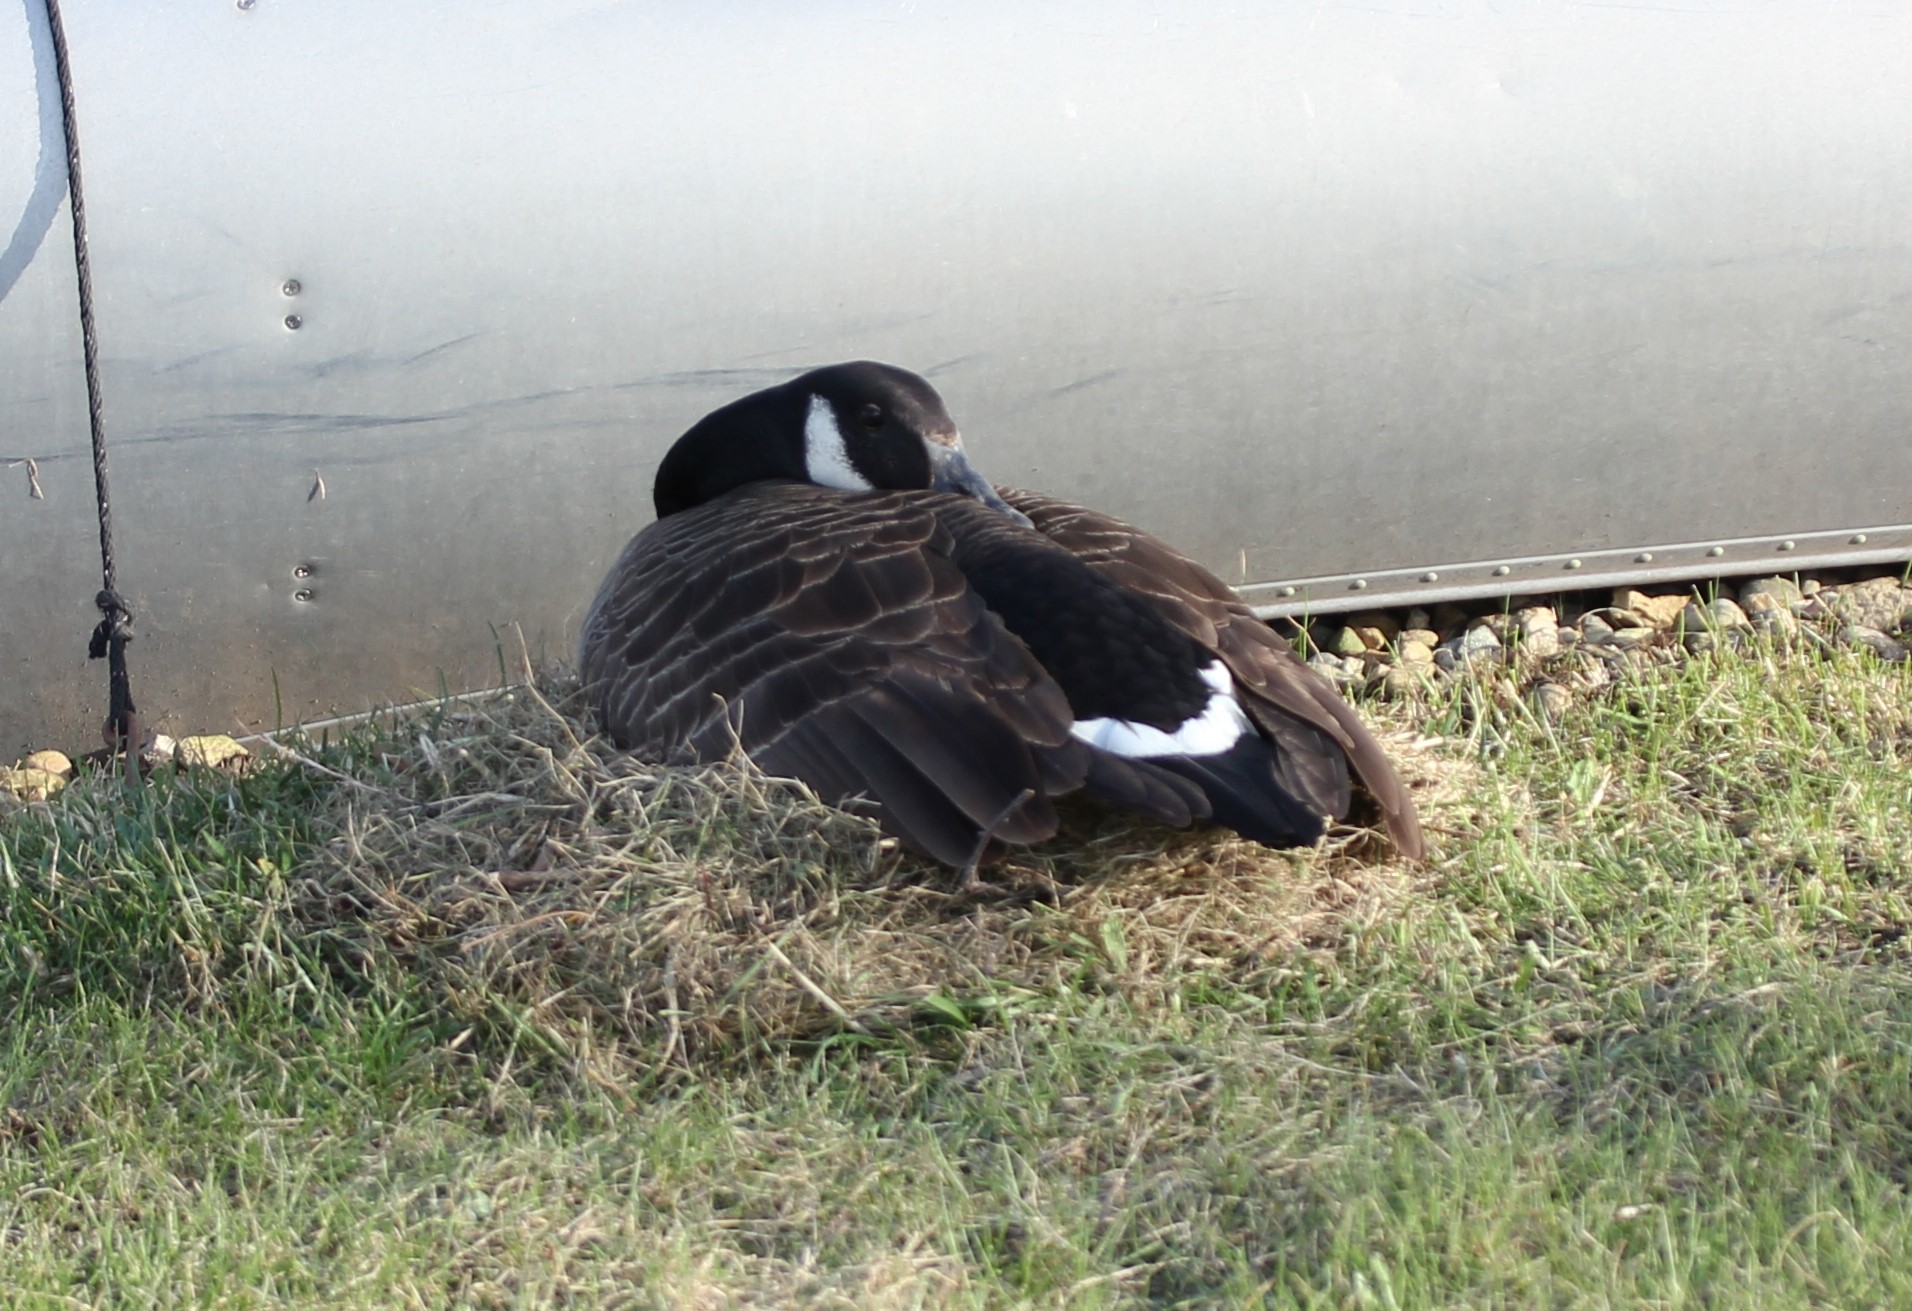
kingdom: Animalia
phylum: Chordata
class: Aves
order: Anseriformes
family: Anatidae
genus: Branta
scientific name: Branta canadensis
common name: Canada goose
